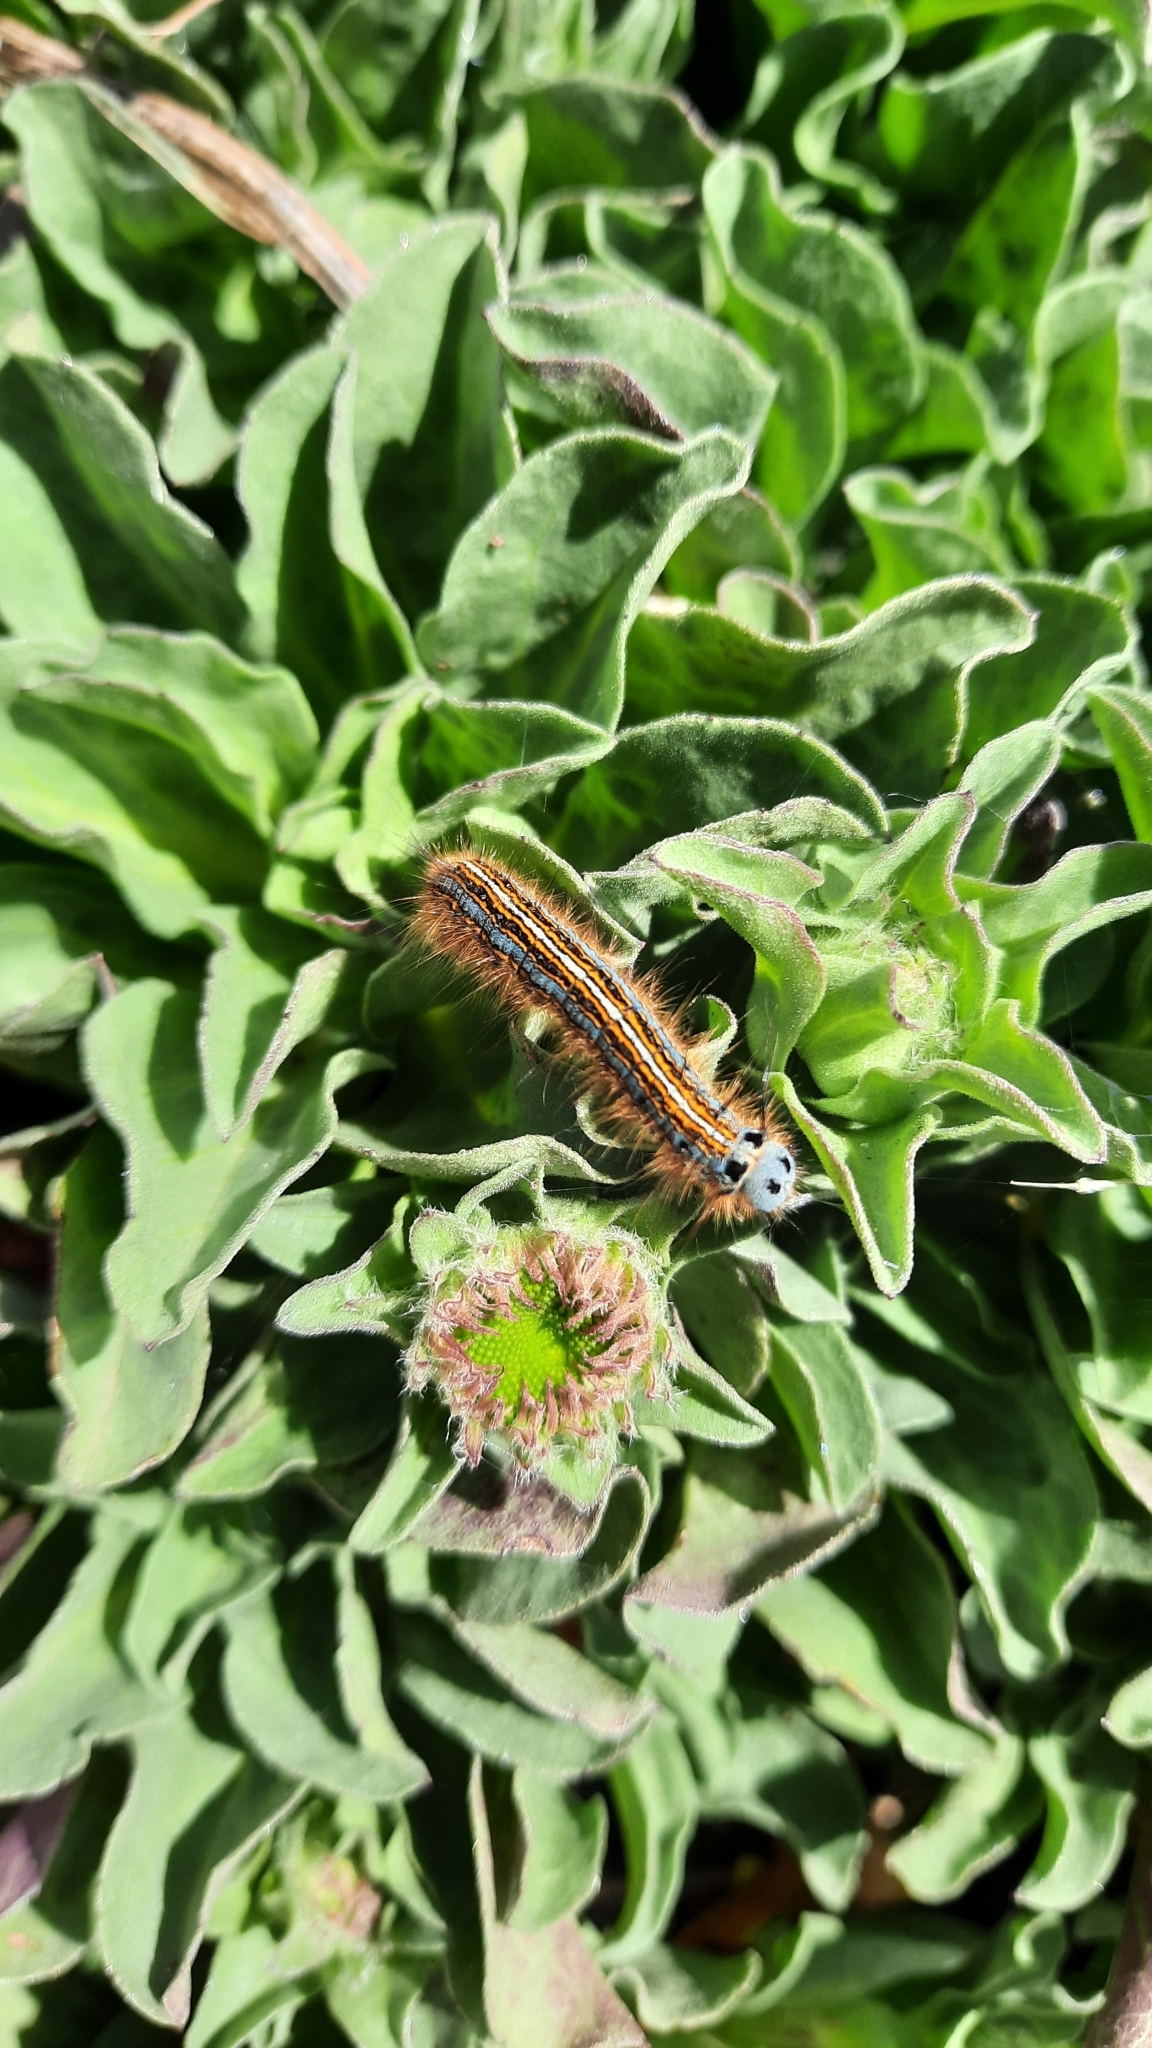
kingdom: Animalia
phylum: Arthropoda
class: Insecta
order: Lepidoptera
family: Lasiocampidae
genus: Malacosoma
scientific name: Malacosoma neustria
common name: The lackey
